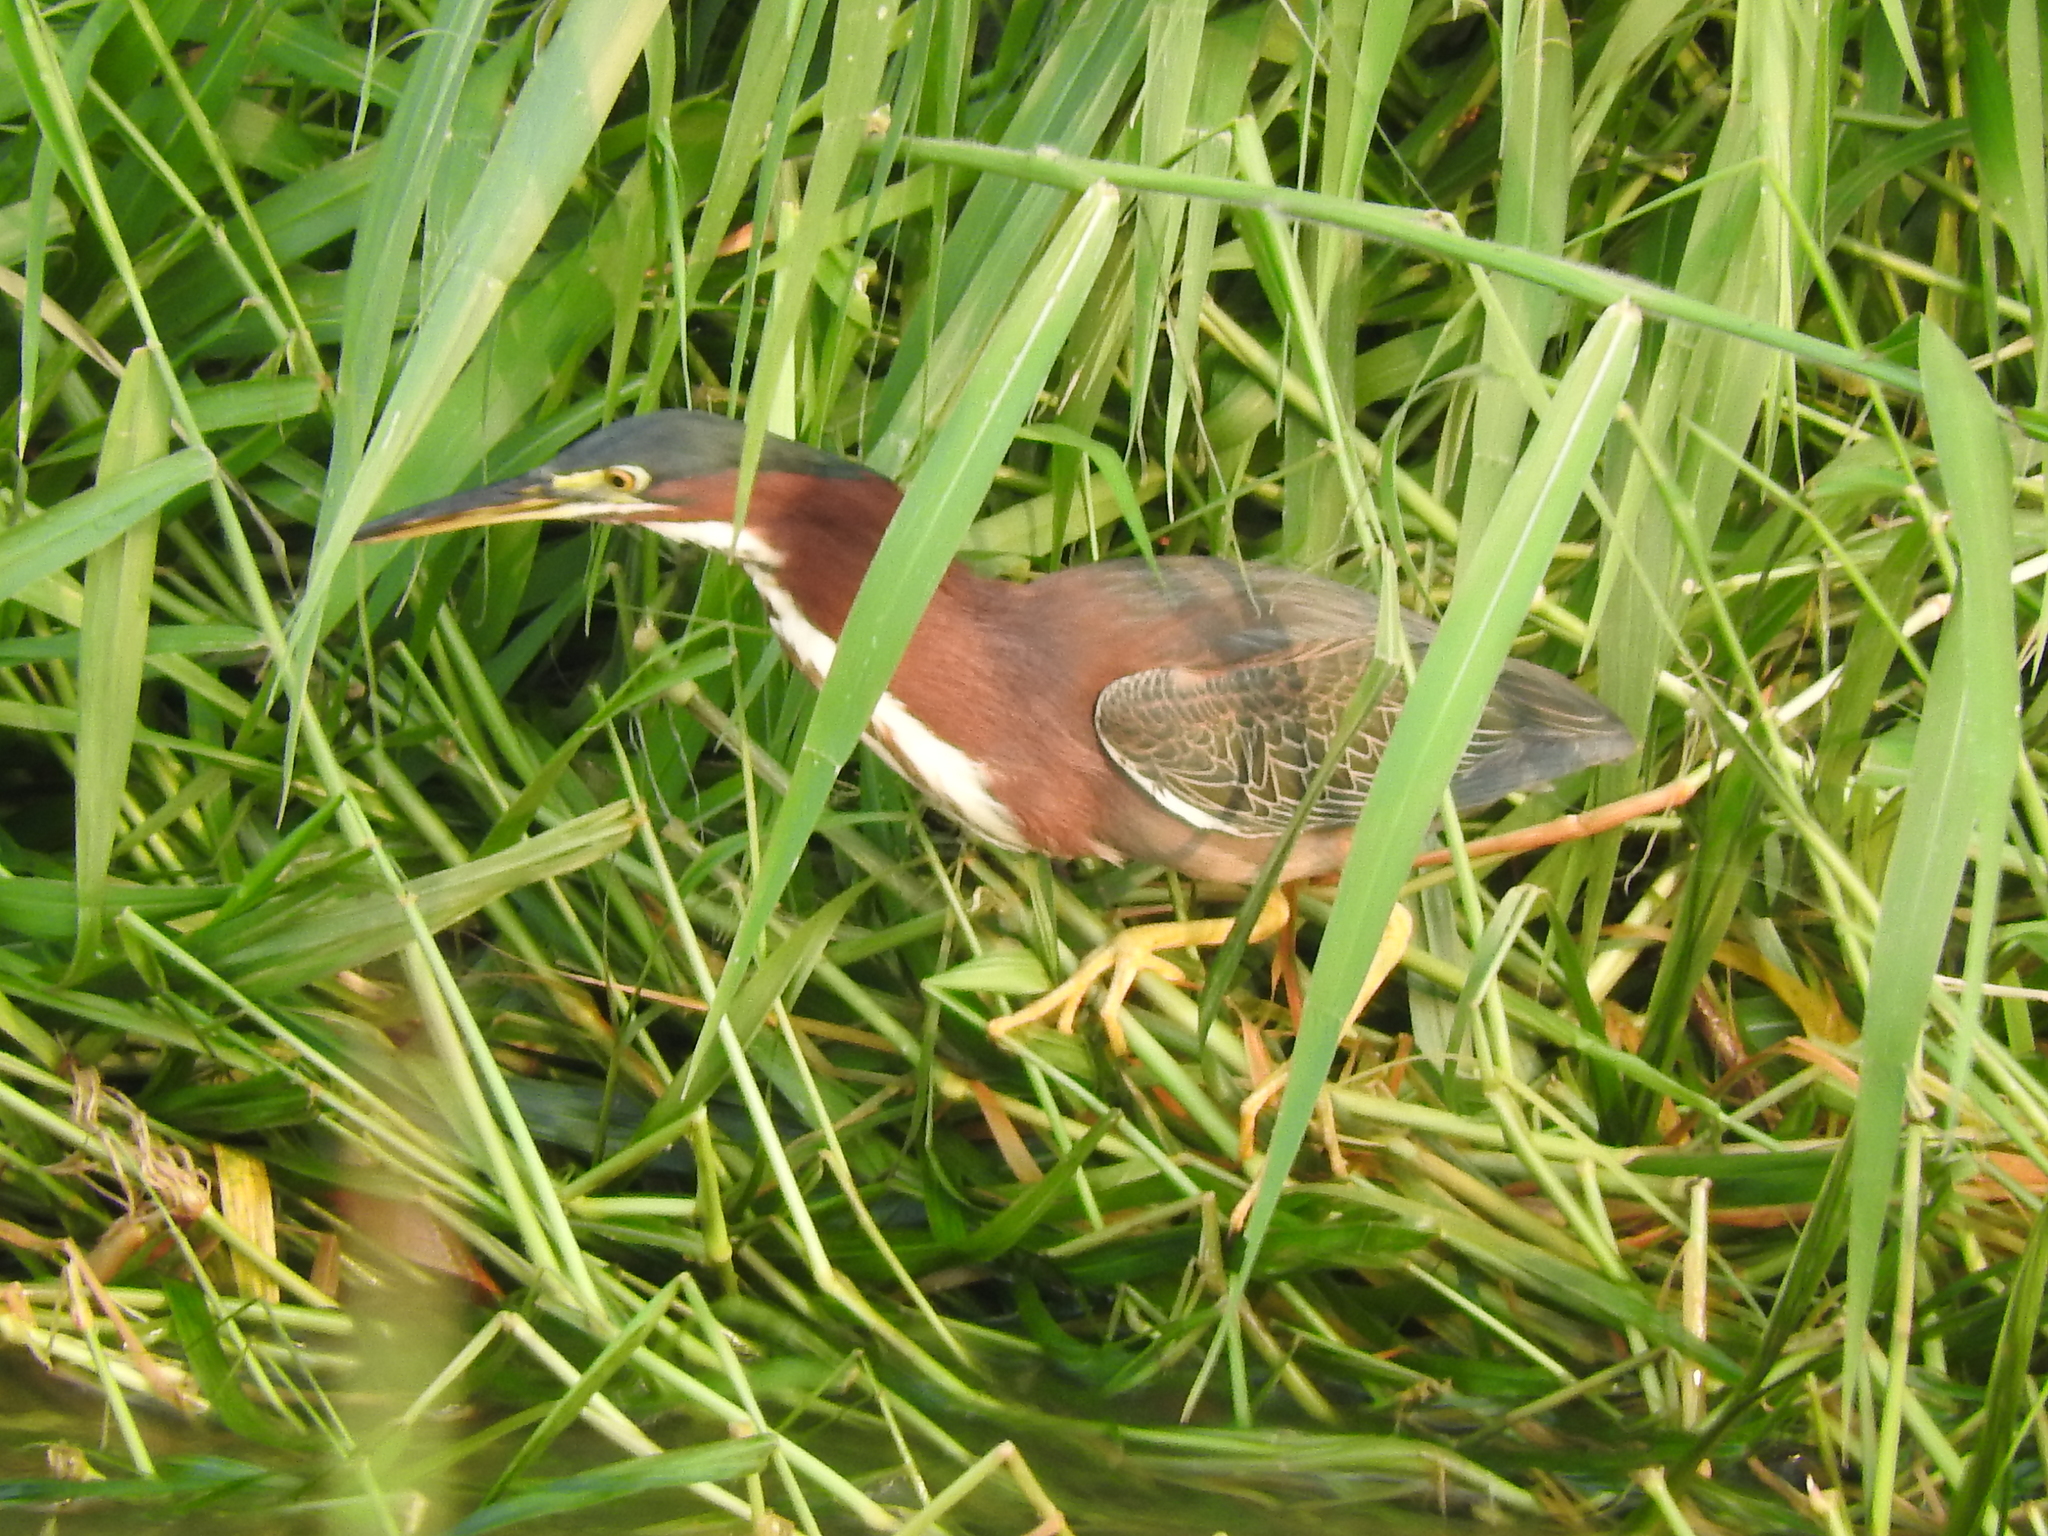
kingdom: Animalia
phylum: Chordata
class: Aves
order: Pelecaniformes
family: Ardeidae
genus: Butorides
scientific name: Butorides virescens
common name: Green heron
